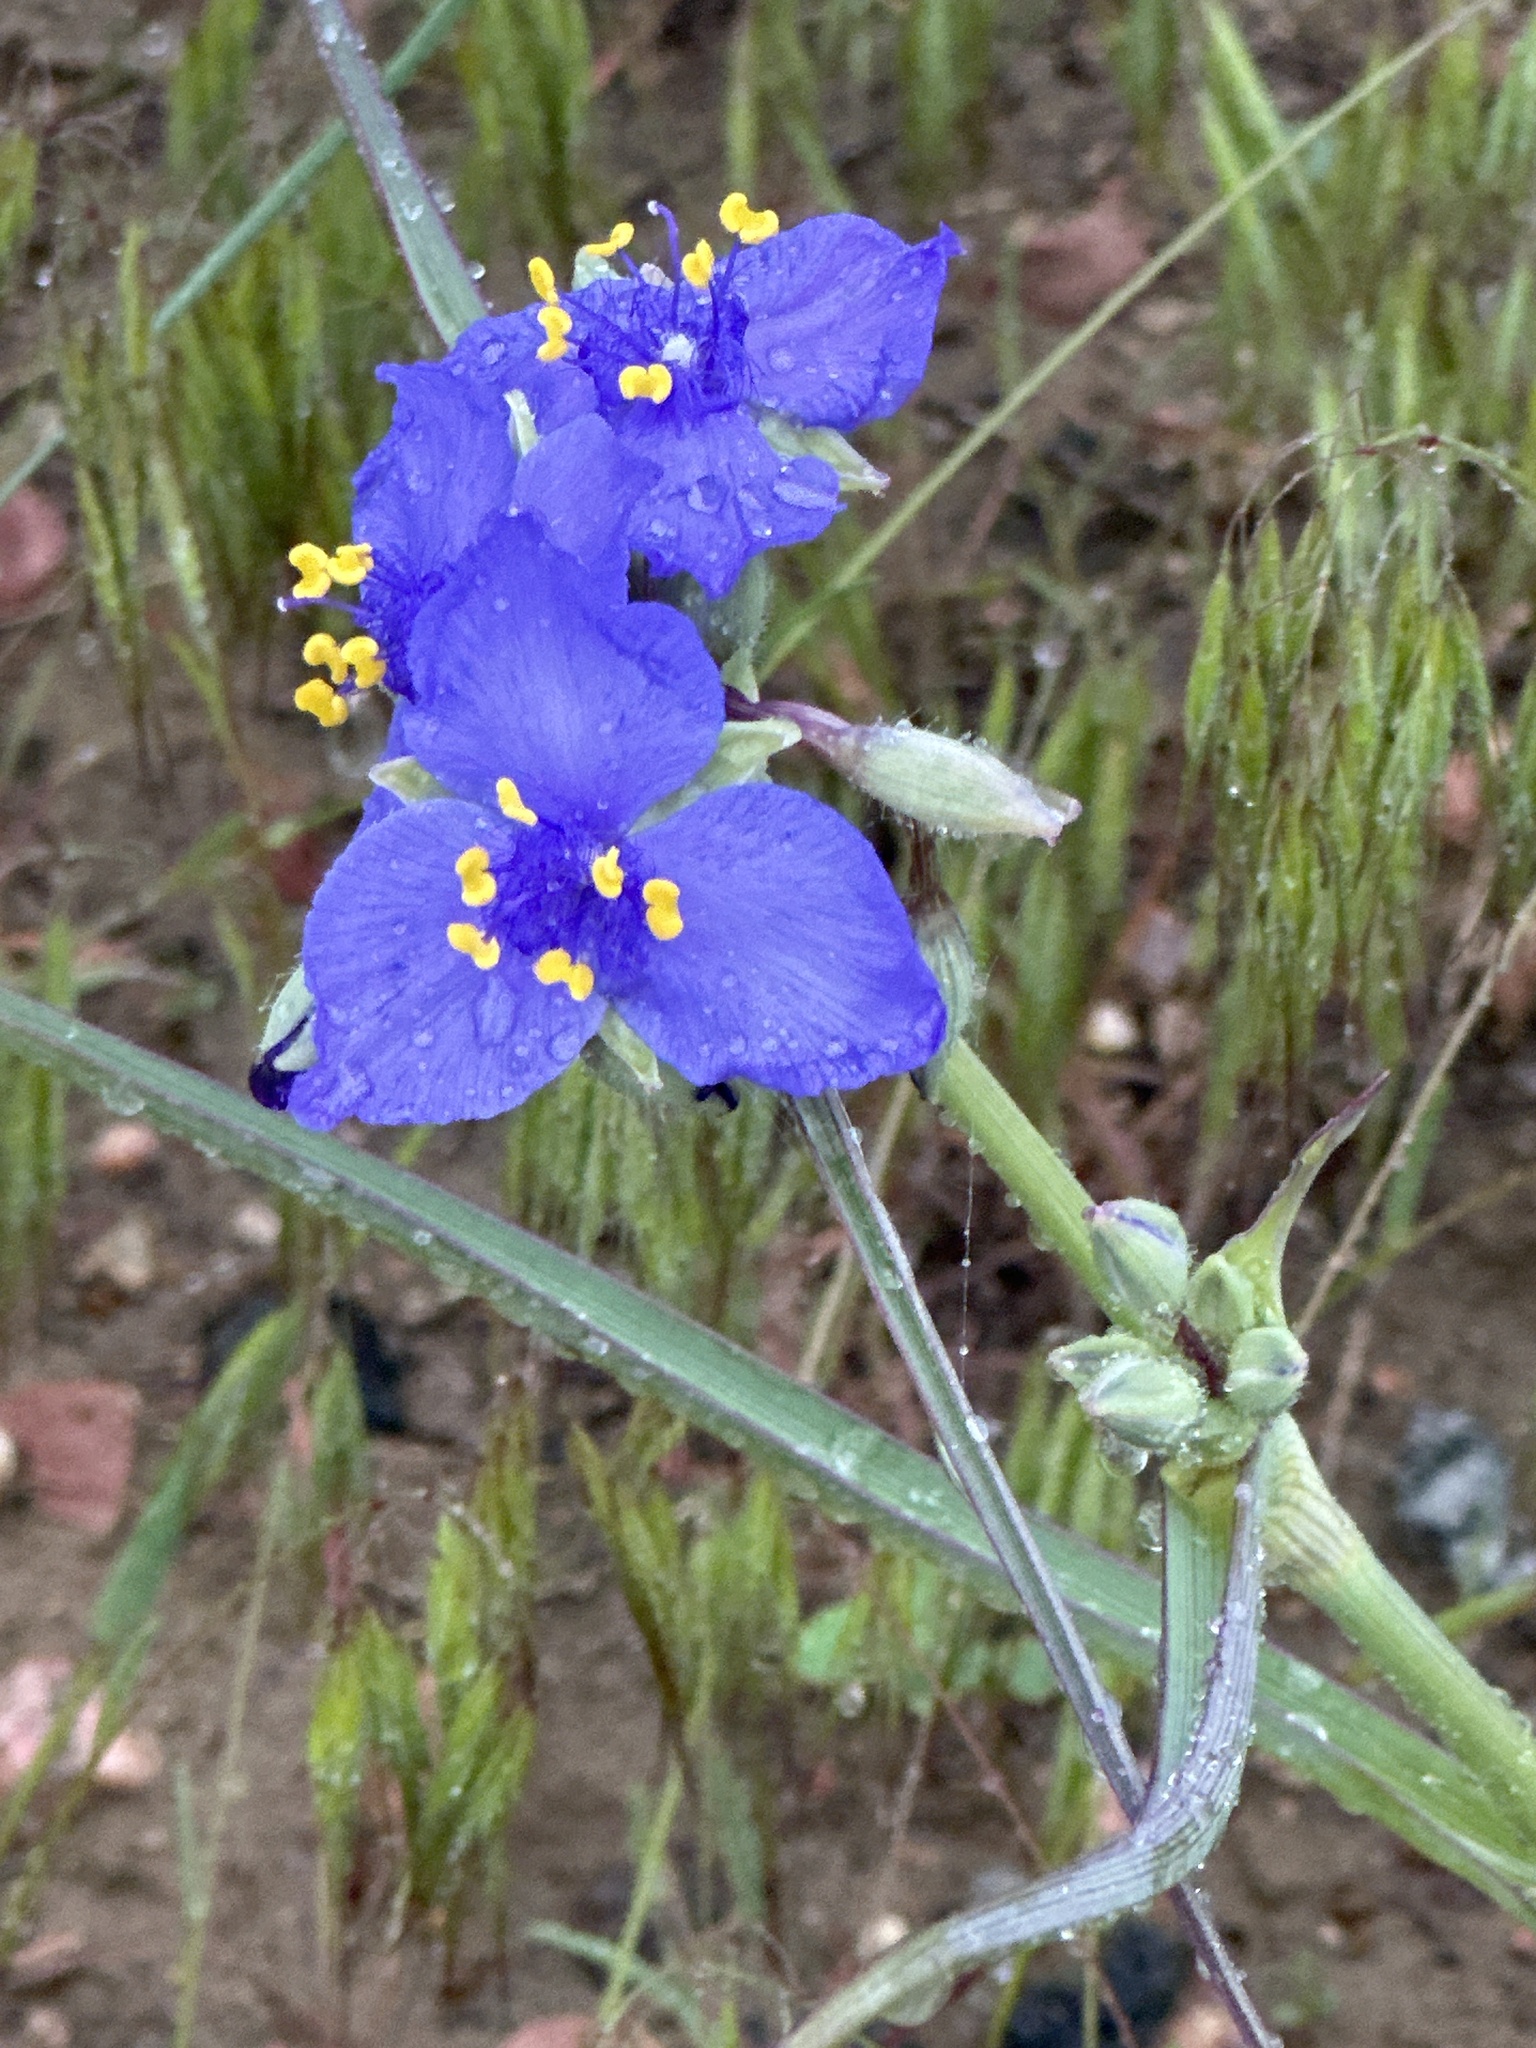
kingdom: Plantae
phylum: Tracheophyta
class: Liliopsida
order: Commelinales
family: Commelinaceae
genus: Tradescantia
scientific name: Tradescantia occidentalis
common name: Prairie spiderwort
